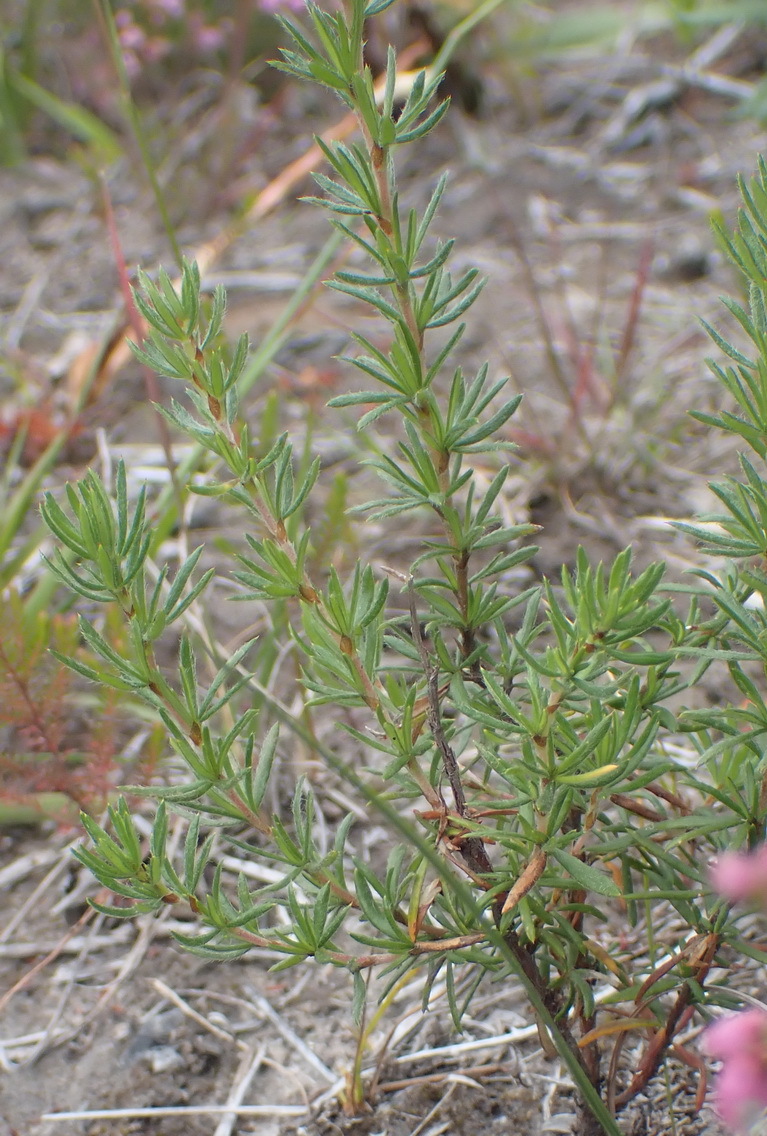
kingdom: Plantae
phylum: Tracheophyta
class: Magnoliopsida
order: Ericales
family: Ericaceae
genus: Erica
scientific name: Erica gracilis
